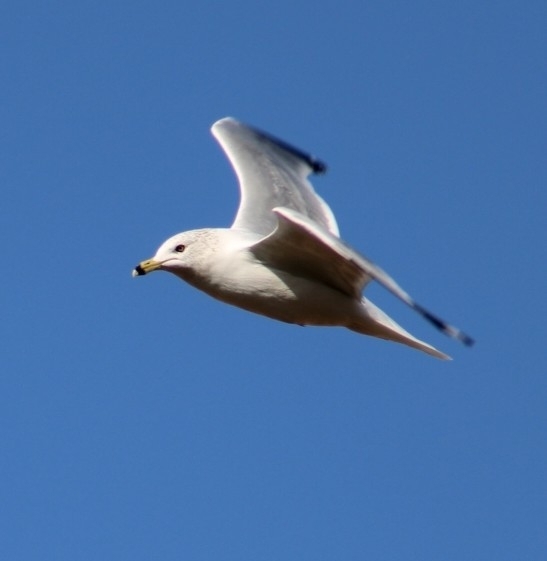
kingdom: Animalia
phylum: Chordata
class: Aves
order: Charadriiformes
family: Laridae
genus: Larus
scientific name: Larus delawarensis
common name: Ring-billed gull
